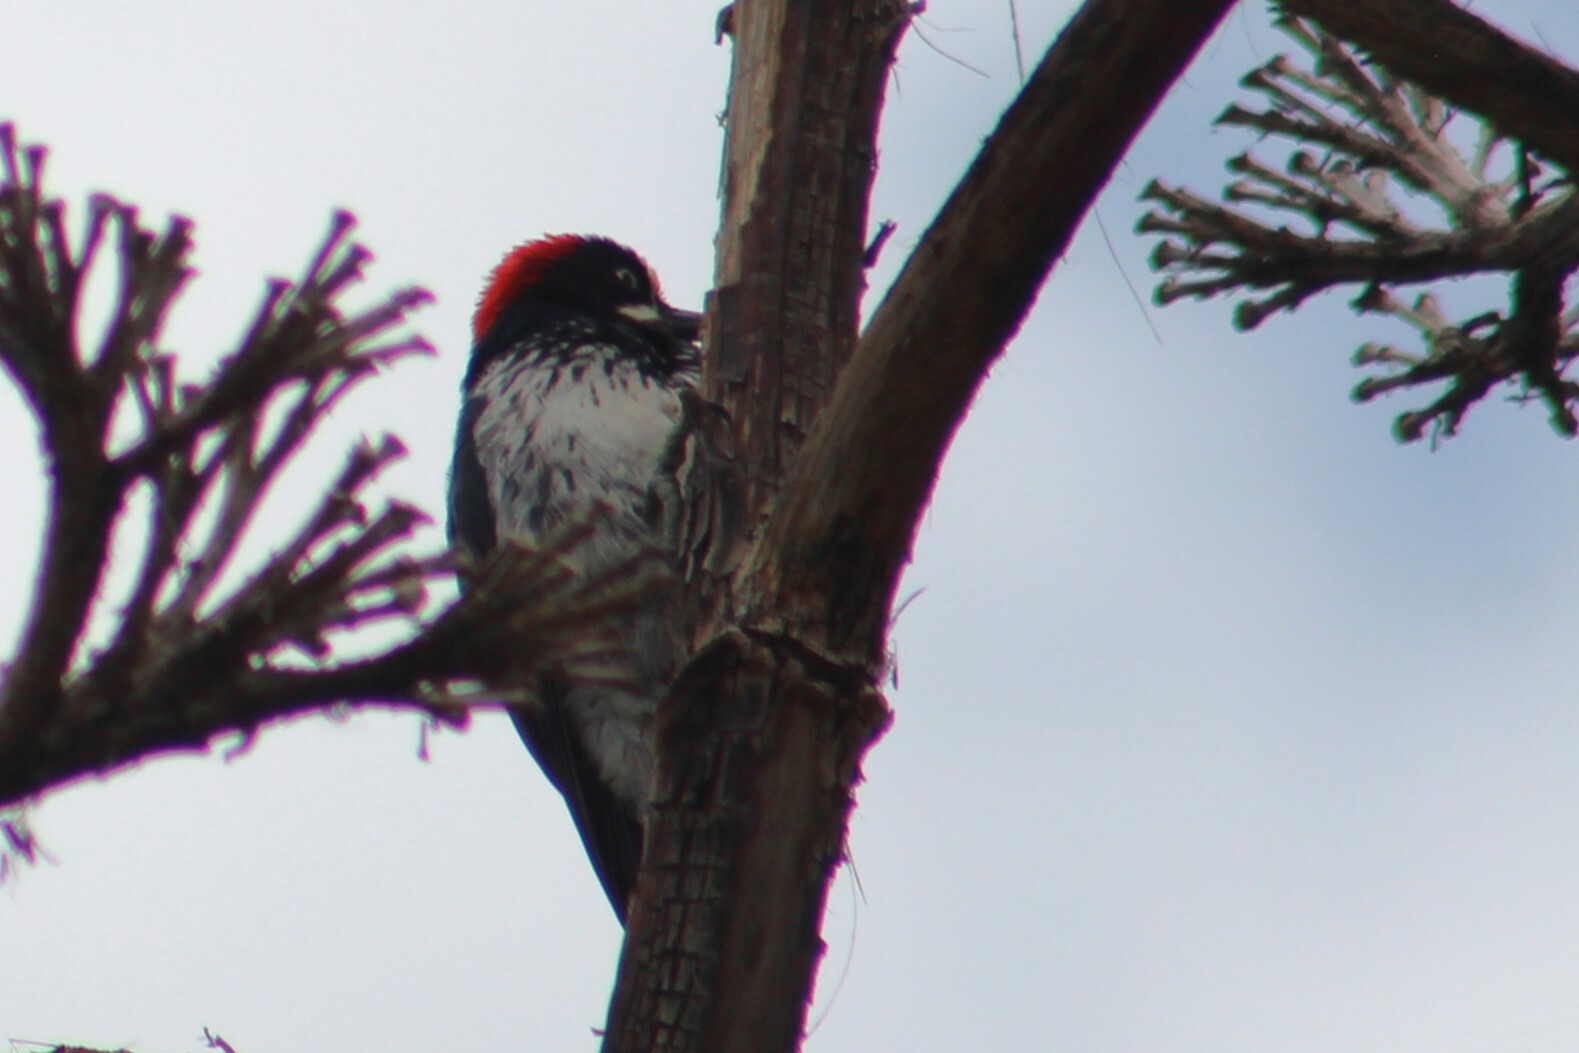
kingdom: Animalia
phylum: Chordata
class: Aves
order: Piciformes
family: Picidae
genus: Melanerpes
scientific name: Melanerpes formicivorus
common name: Acorn woodpecker
